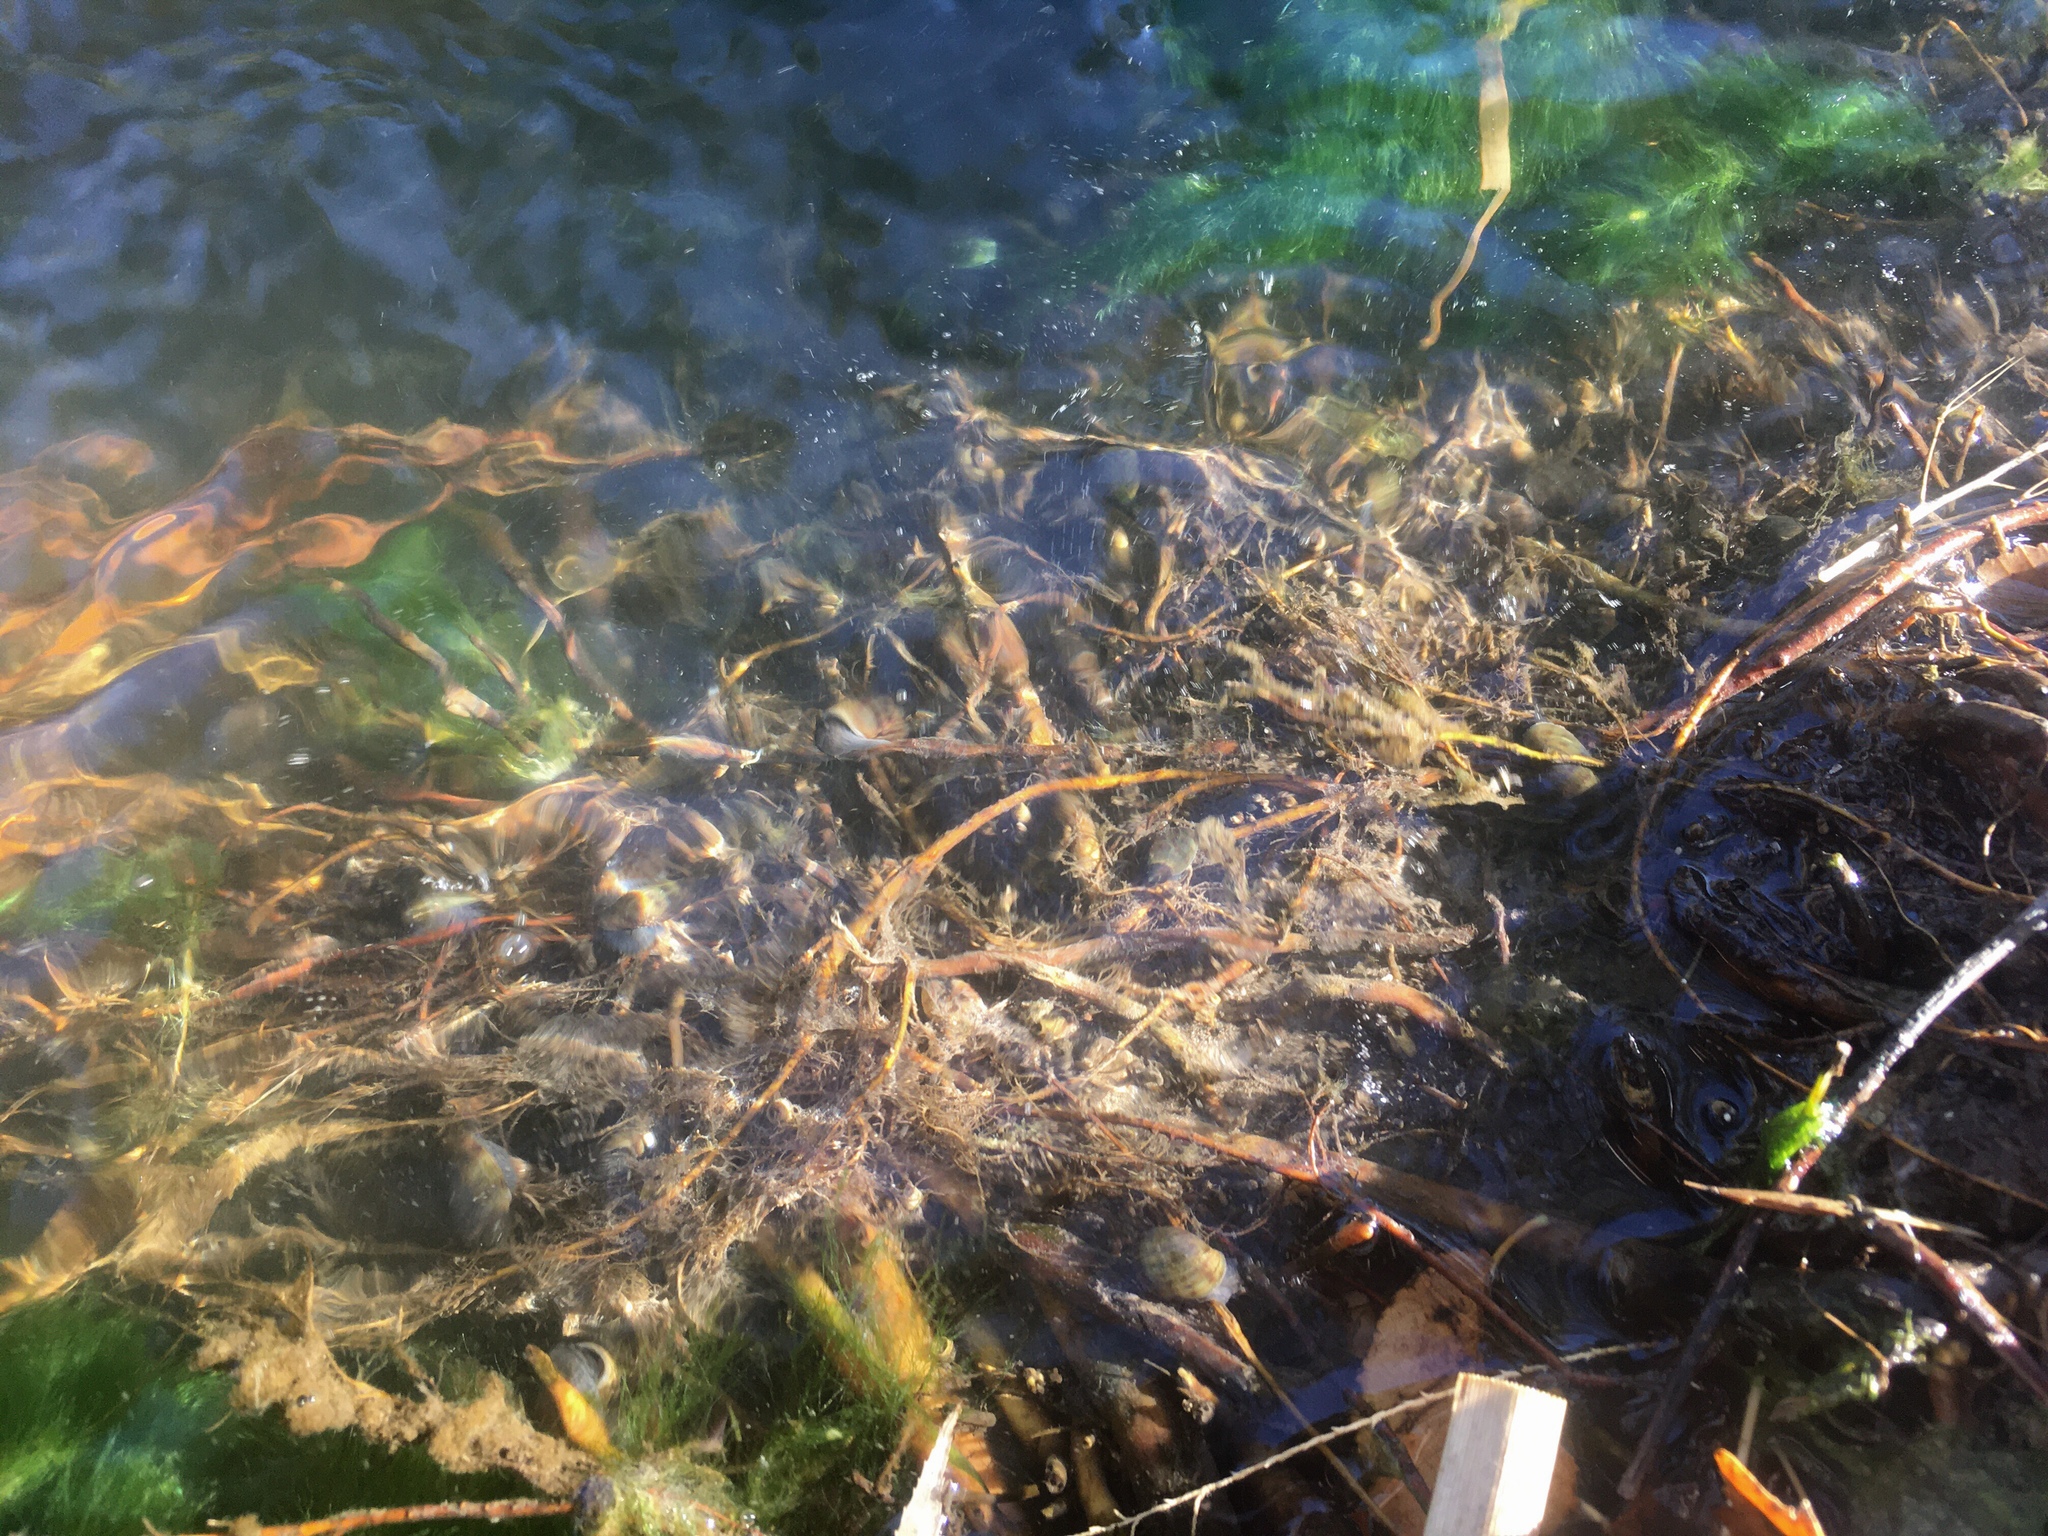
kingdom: Animalia
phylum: Mollusca
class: Gastropoda
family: Chilinidae
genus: Chilina
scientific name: Chilina parchappii
